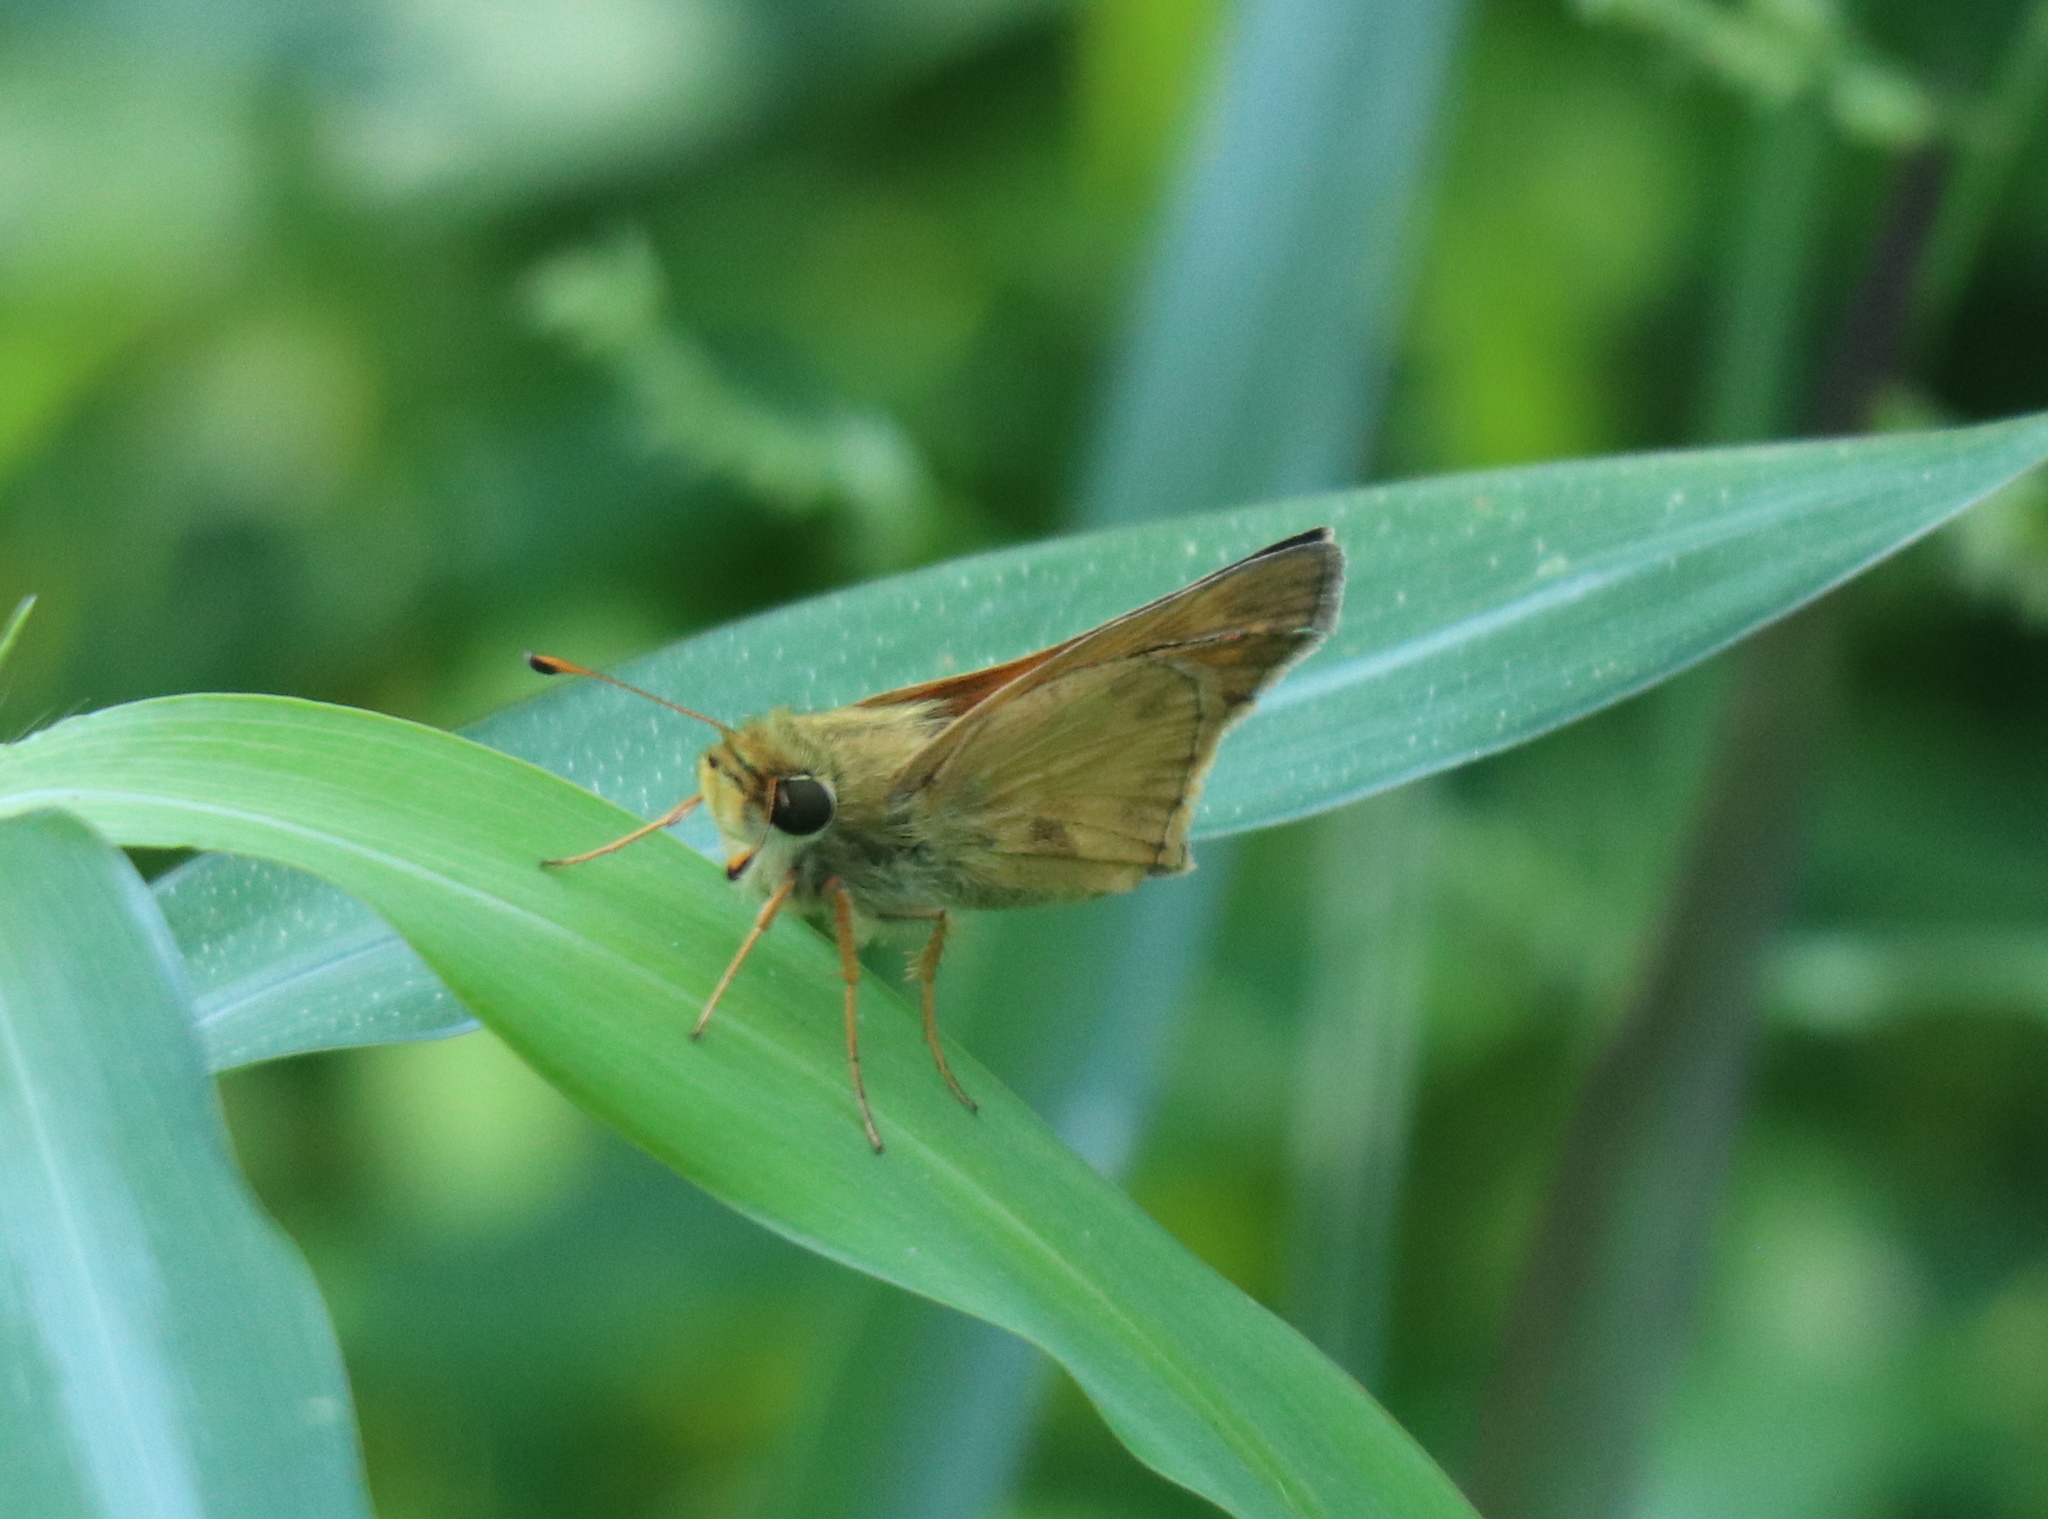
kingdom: Animalia
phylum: Arthropoda
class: Insecta
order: Lepidoptera
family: Hesperiidae
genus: Atalopedes
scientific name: Atalopedes
